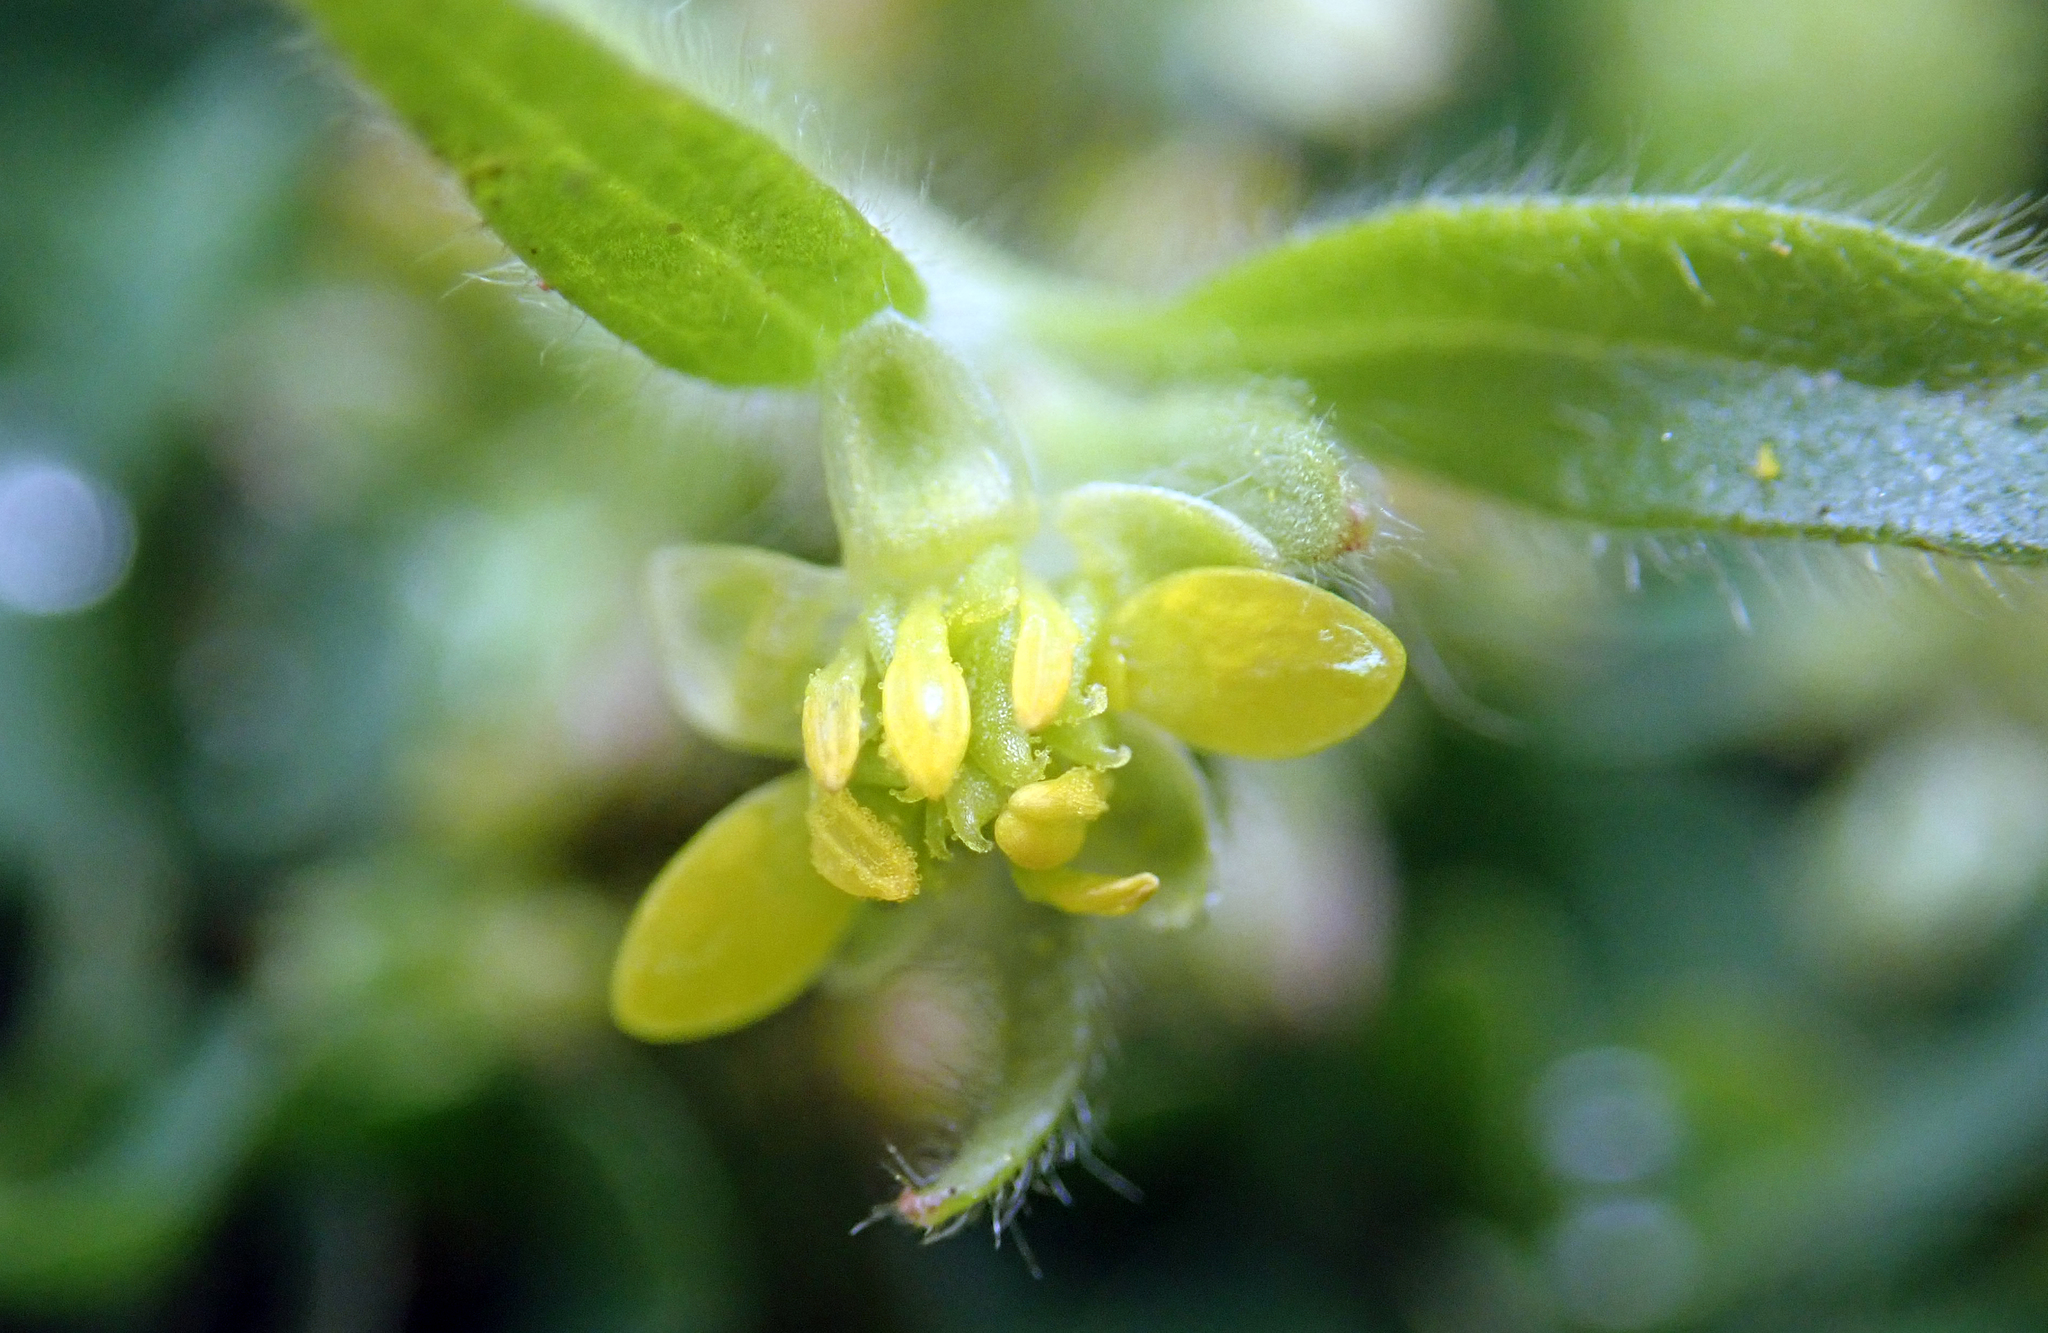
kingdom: Plantae
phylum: Tracheophyta
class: Magnoliopsida
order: Ranunculales
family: Ranunculaceae
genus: Ranunculus
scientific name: Ranunculus parviflorus
